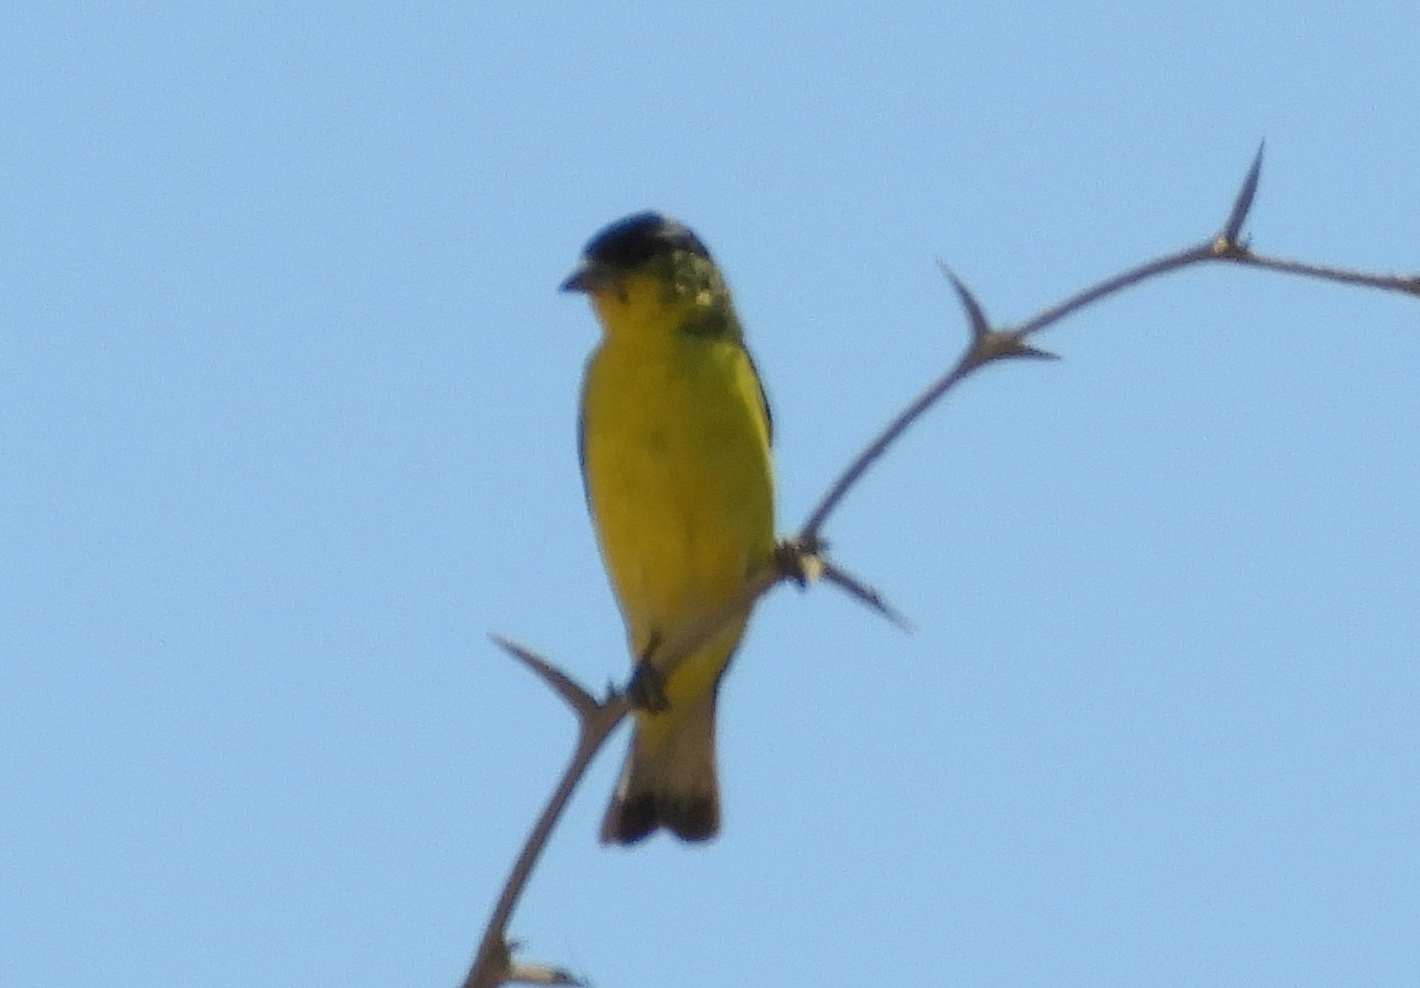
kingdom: Animalia
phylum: Chordata
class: Aves
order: Passeriformes
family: Fringillidae
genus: Spinus
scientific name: Spinus psaltria
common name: Lesser goldfinch
